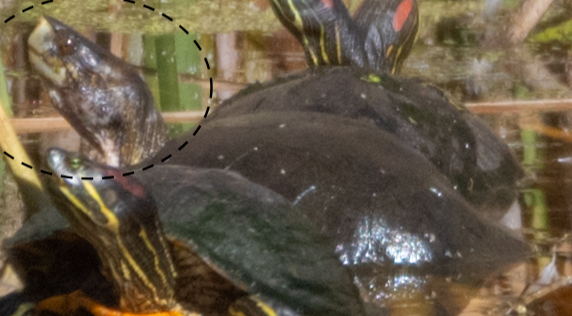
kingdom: Animalia
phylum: Chordata
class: Testudines
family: Emydidae
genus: Actinemys
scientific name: Actinemys marmorata
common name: Western pond turtle
